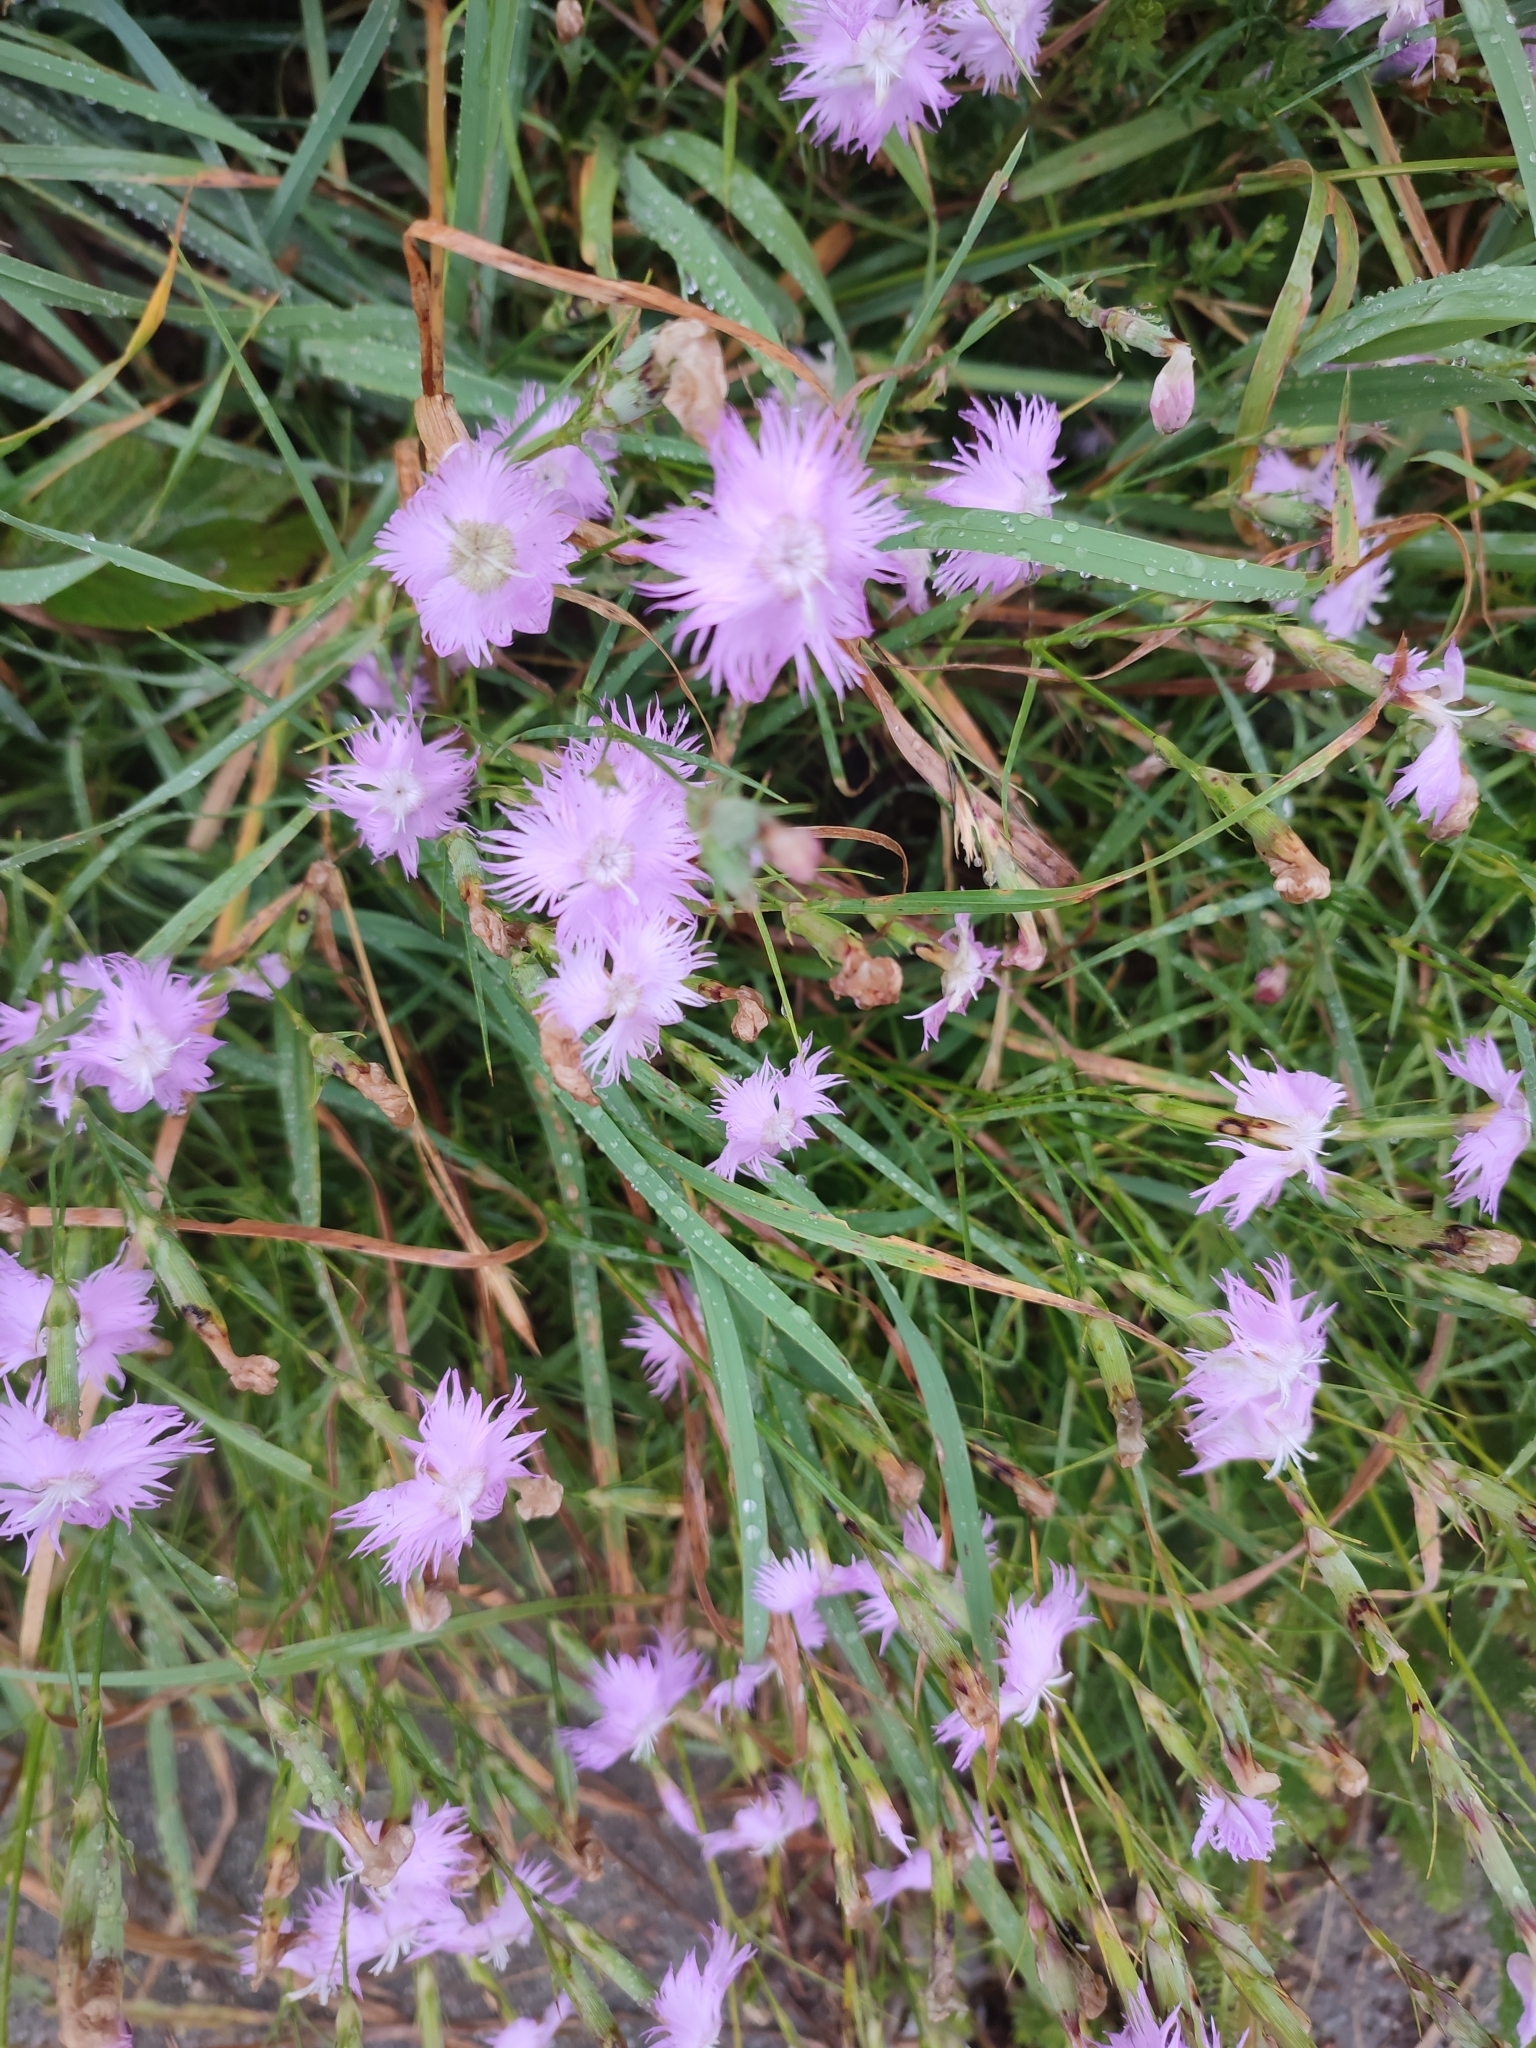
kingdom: Plantae
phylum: Tracheophyta
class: Magnoliopsida
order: Caryophyllales
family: Caryophyllaceae
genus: Dianthus
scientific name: Dianthus hyssopifolius
